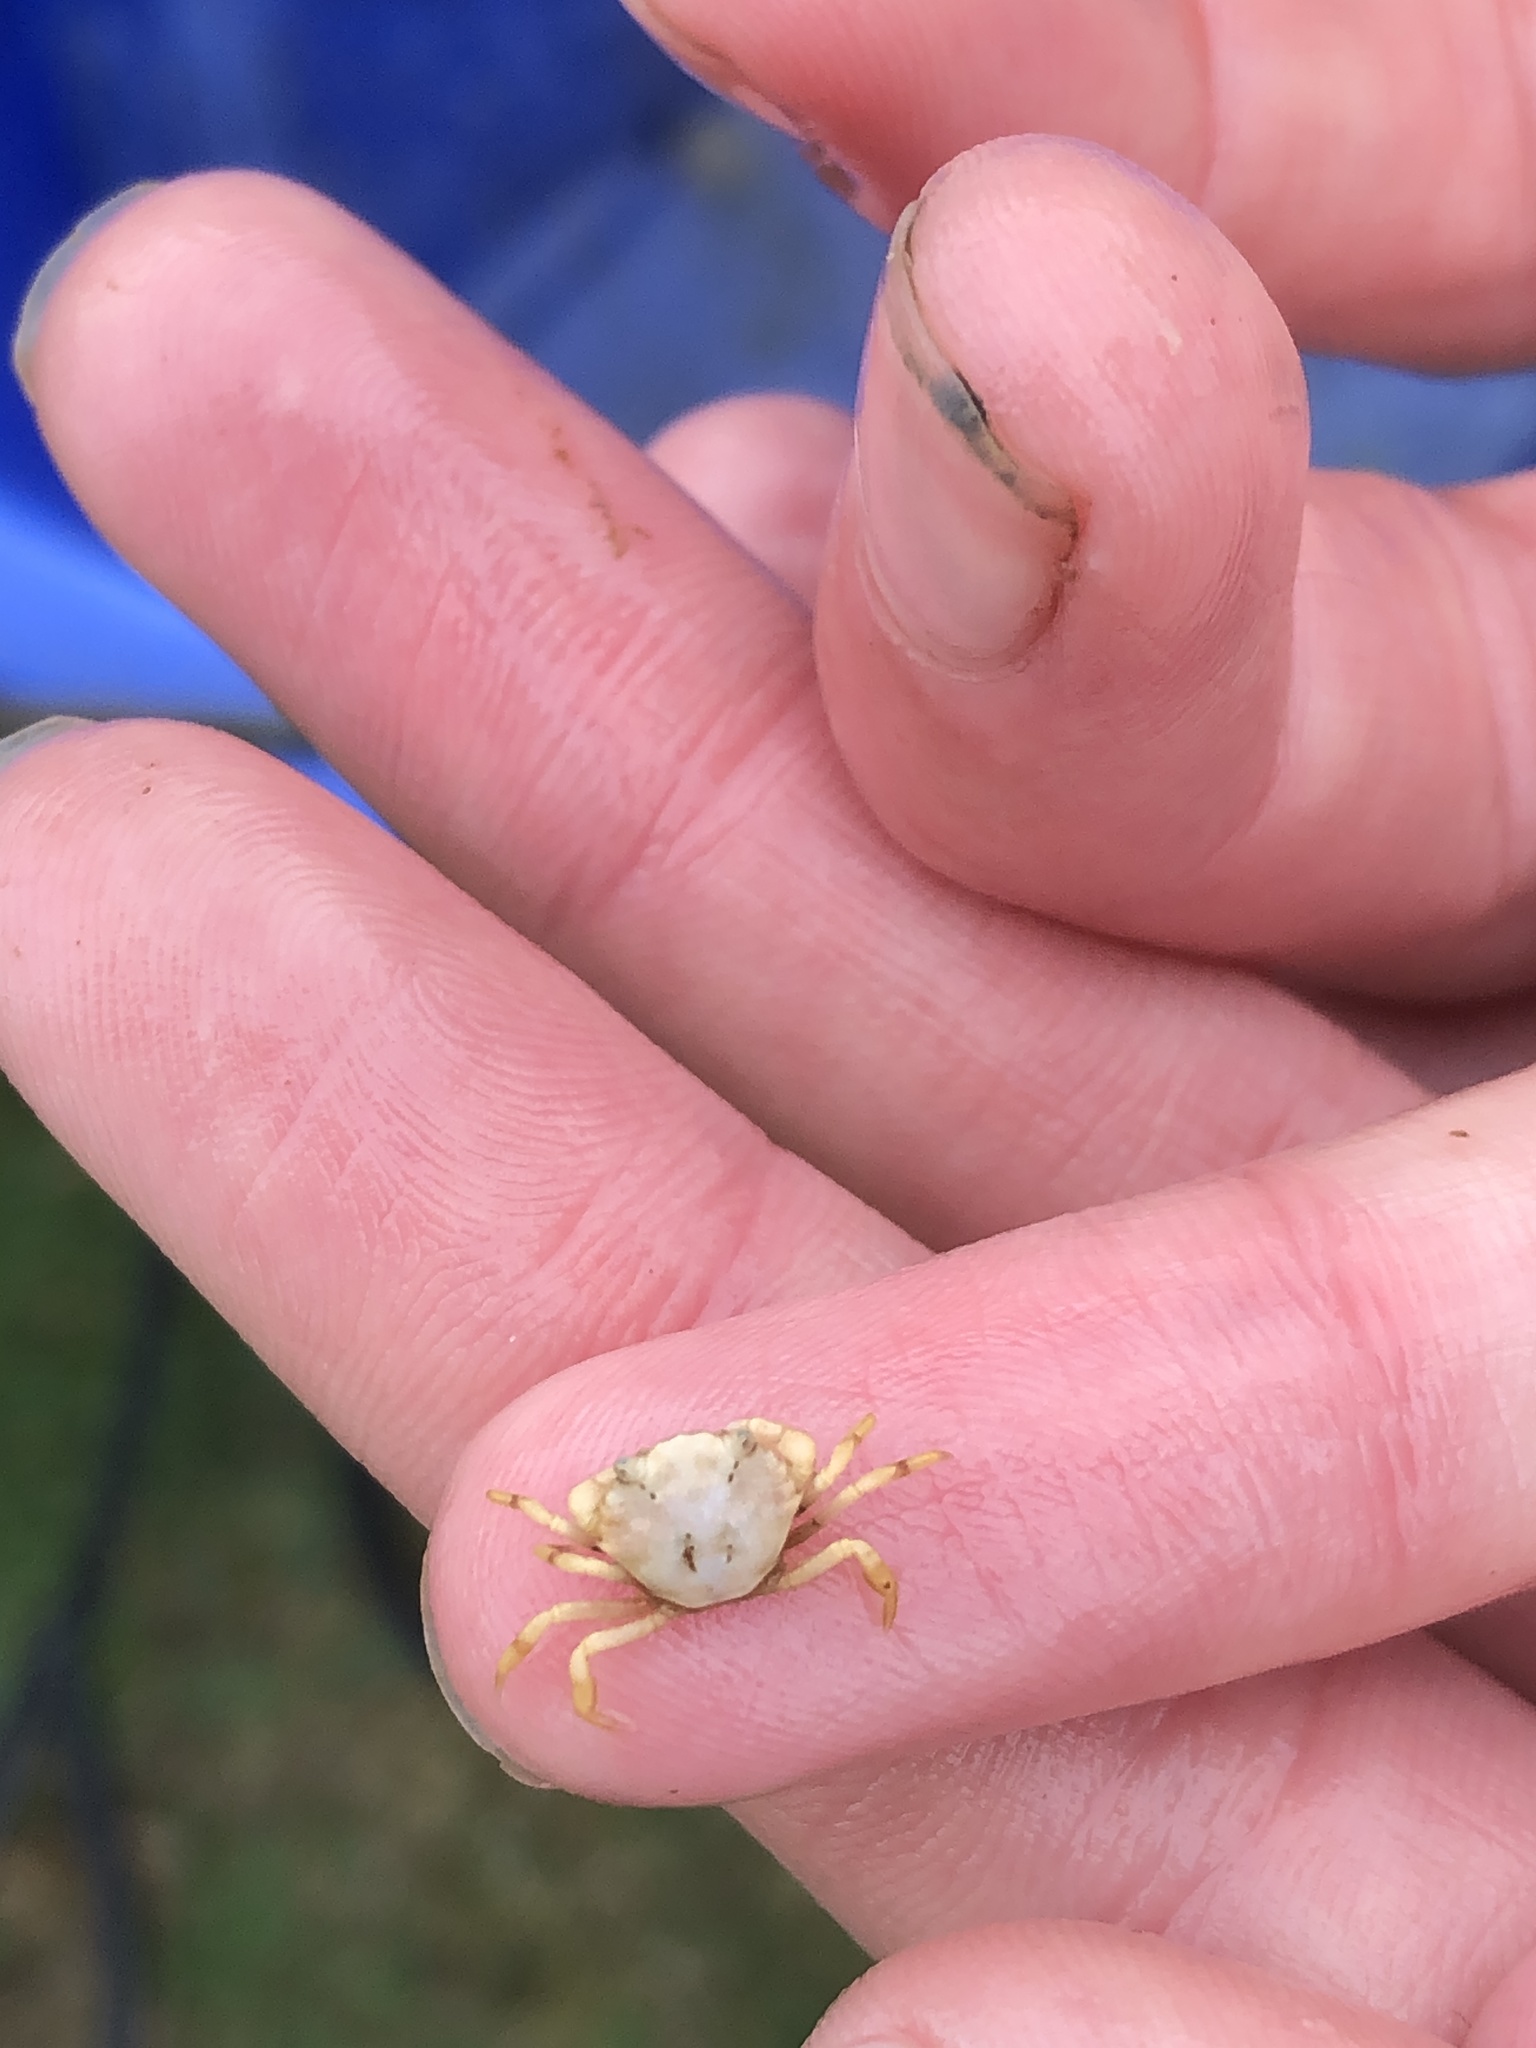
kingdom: Animalia
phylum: Arthropoda
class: Malacostraca
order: Decapoda
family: Carcinidae
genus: Carcinus
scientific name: Carcinus maenas
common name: European green crab
